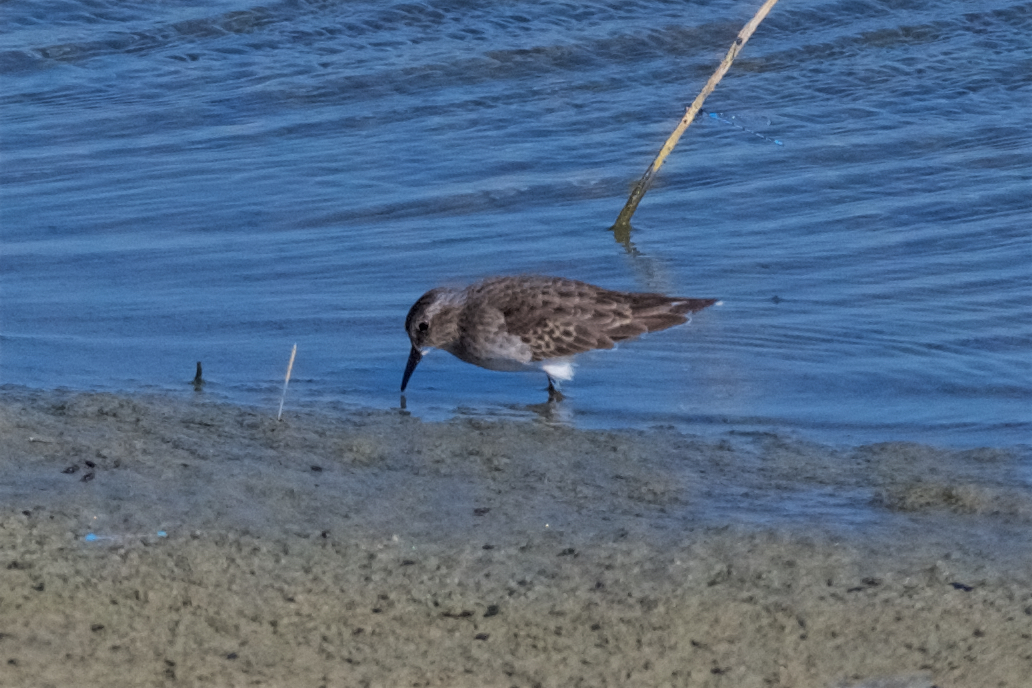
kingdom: Animalia
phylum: Chordata
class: Aves
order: Charadriiformes
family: Scolopacidae
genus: Calidris
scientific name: Calidris minutilla
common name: Least sandpiper
